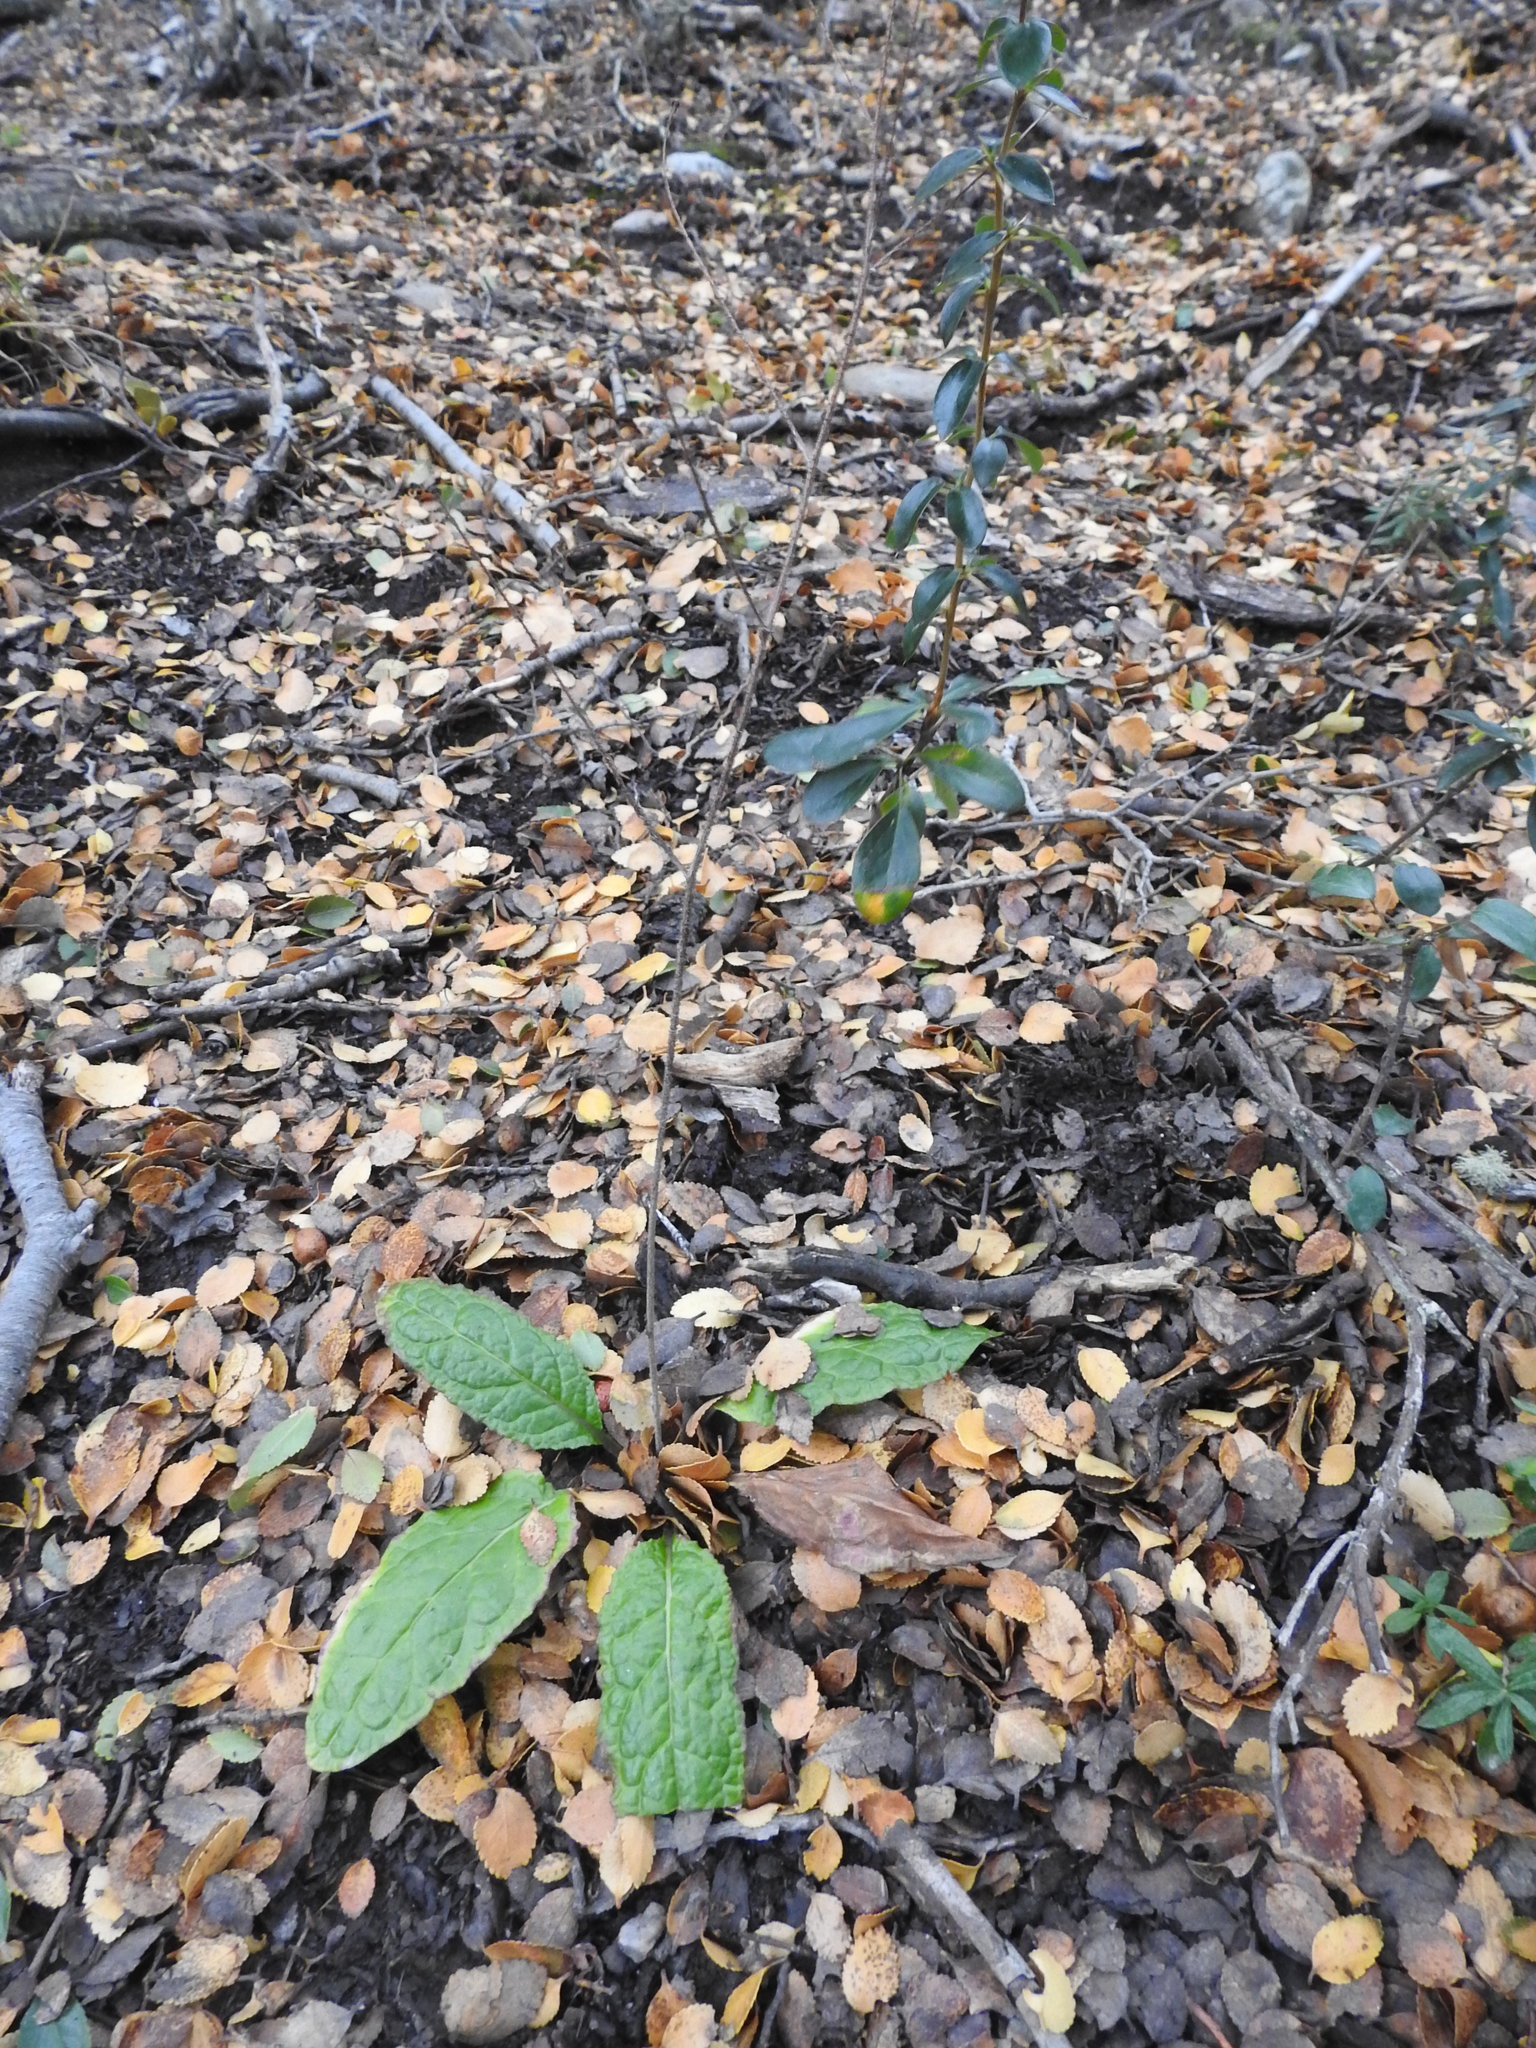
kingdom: Plantae
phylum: Tracheophyta
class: Magnoliopsida
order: Asterales
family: Asteraceae
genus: Adenocaulon
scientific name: Adenocaulon chilense
